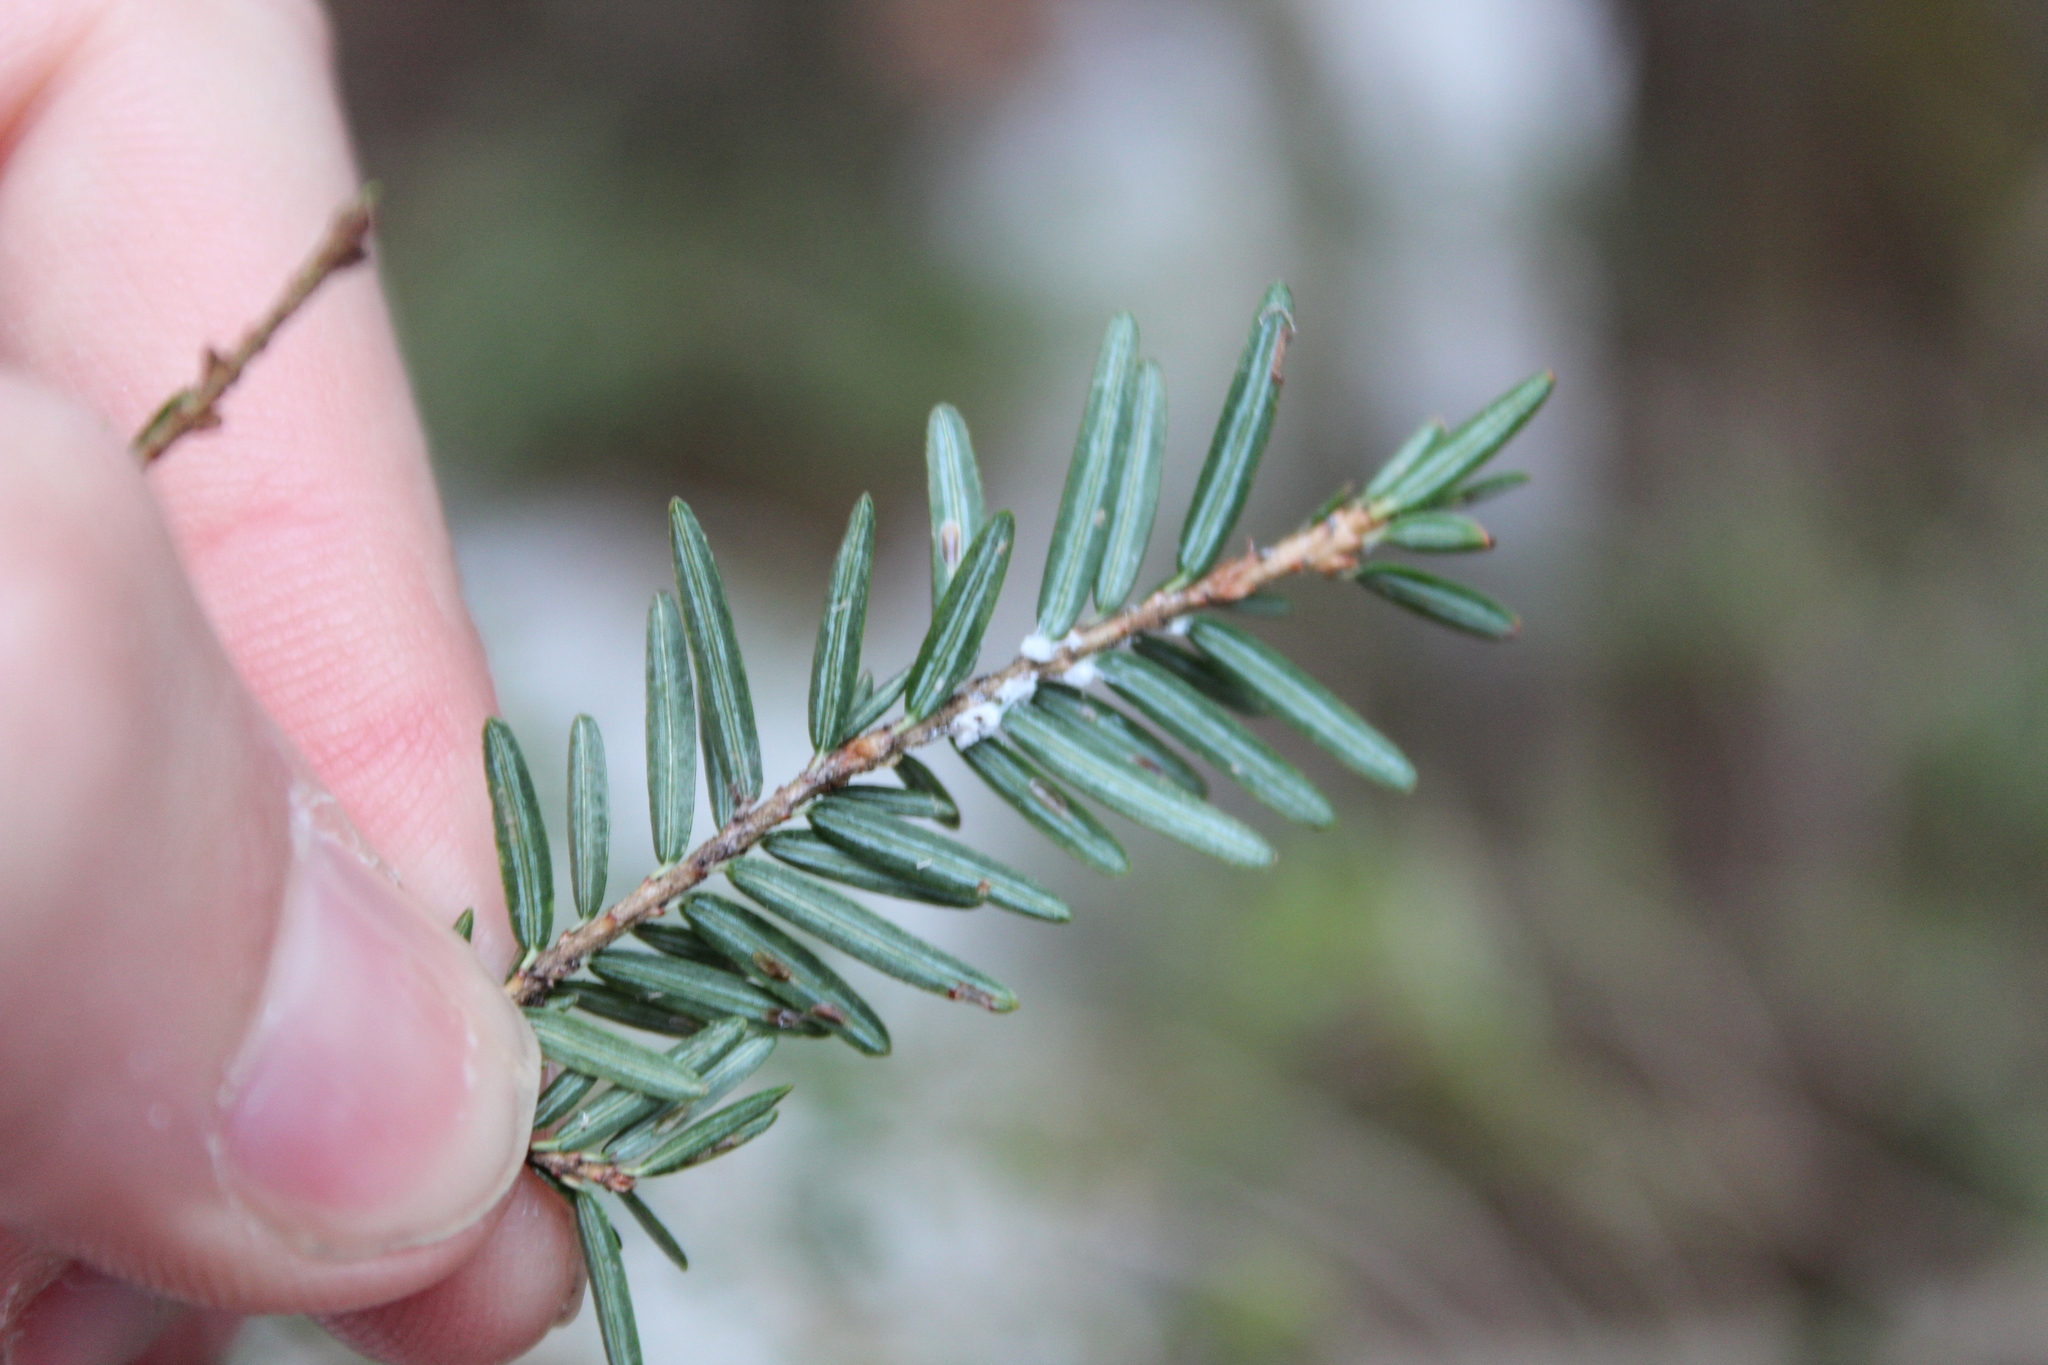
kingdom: Animalia
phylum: Arthropoda
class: Insecta
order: Hemiptera
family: Adelgidae
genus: Adelges
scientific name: Adelges tsugae
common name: Hemlock woolly adelgid
